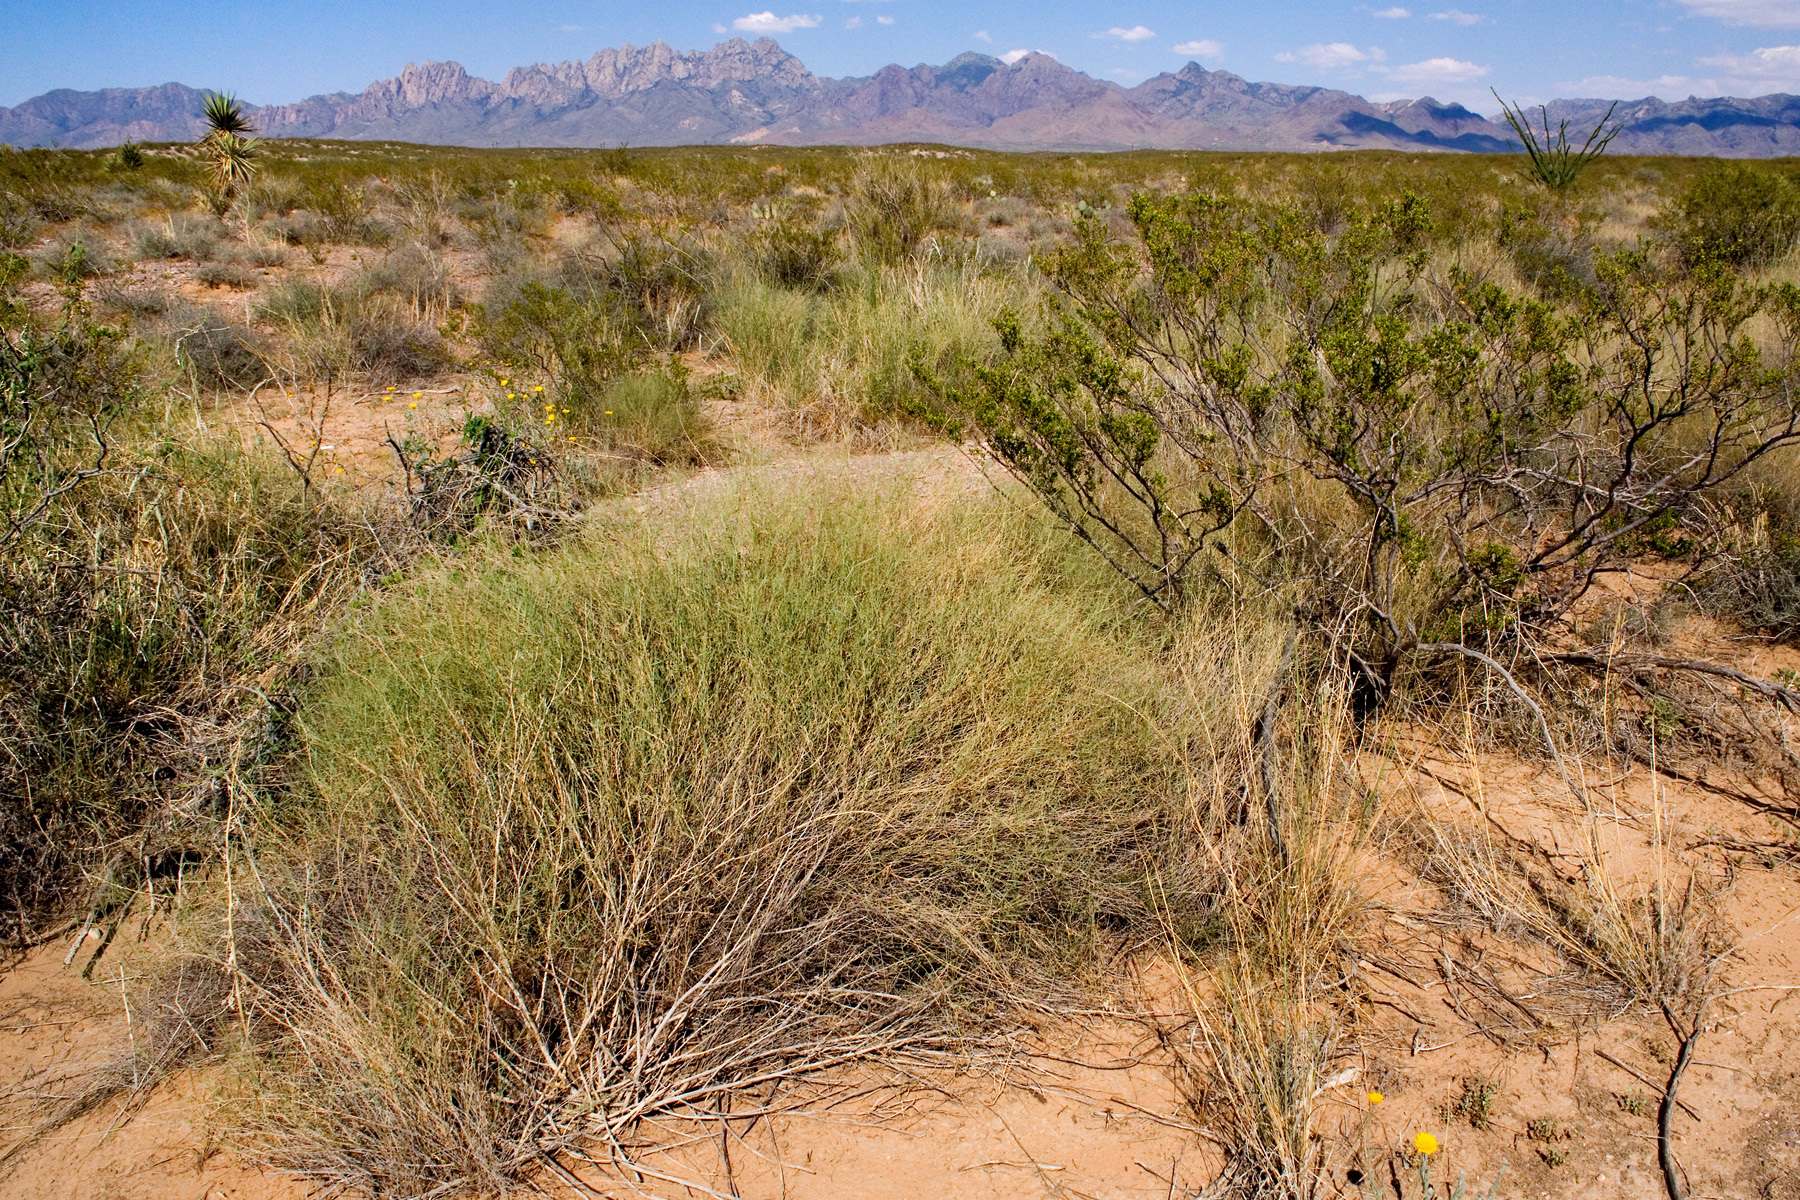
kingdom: Plantae
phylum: Tracheophyta
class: Liliopsida
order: Poales
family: Poaceae
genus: Muhlenbergia
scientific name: Muhlenbergia porteri
